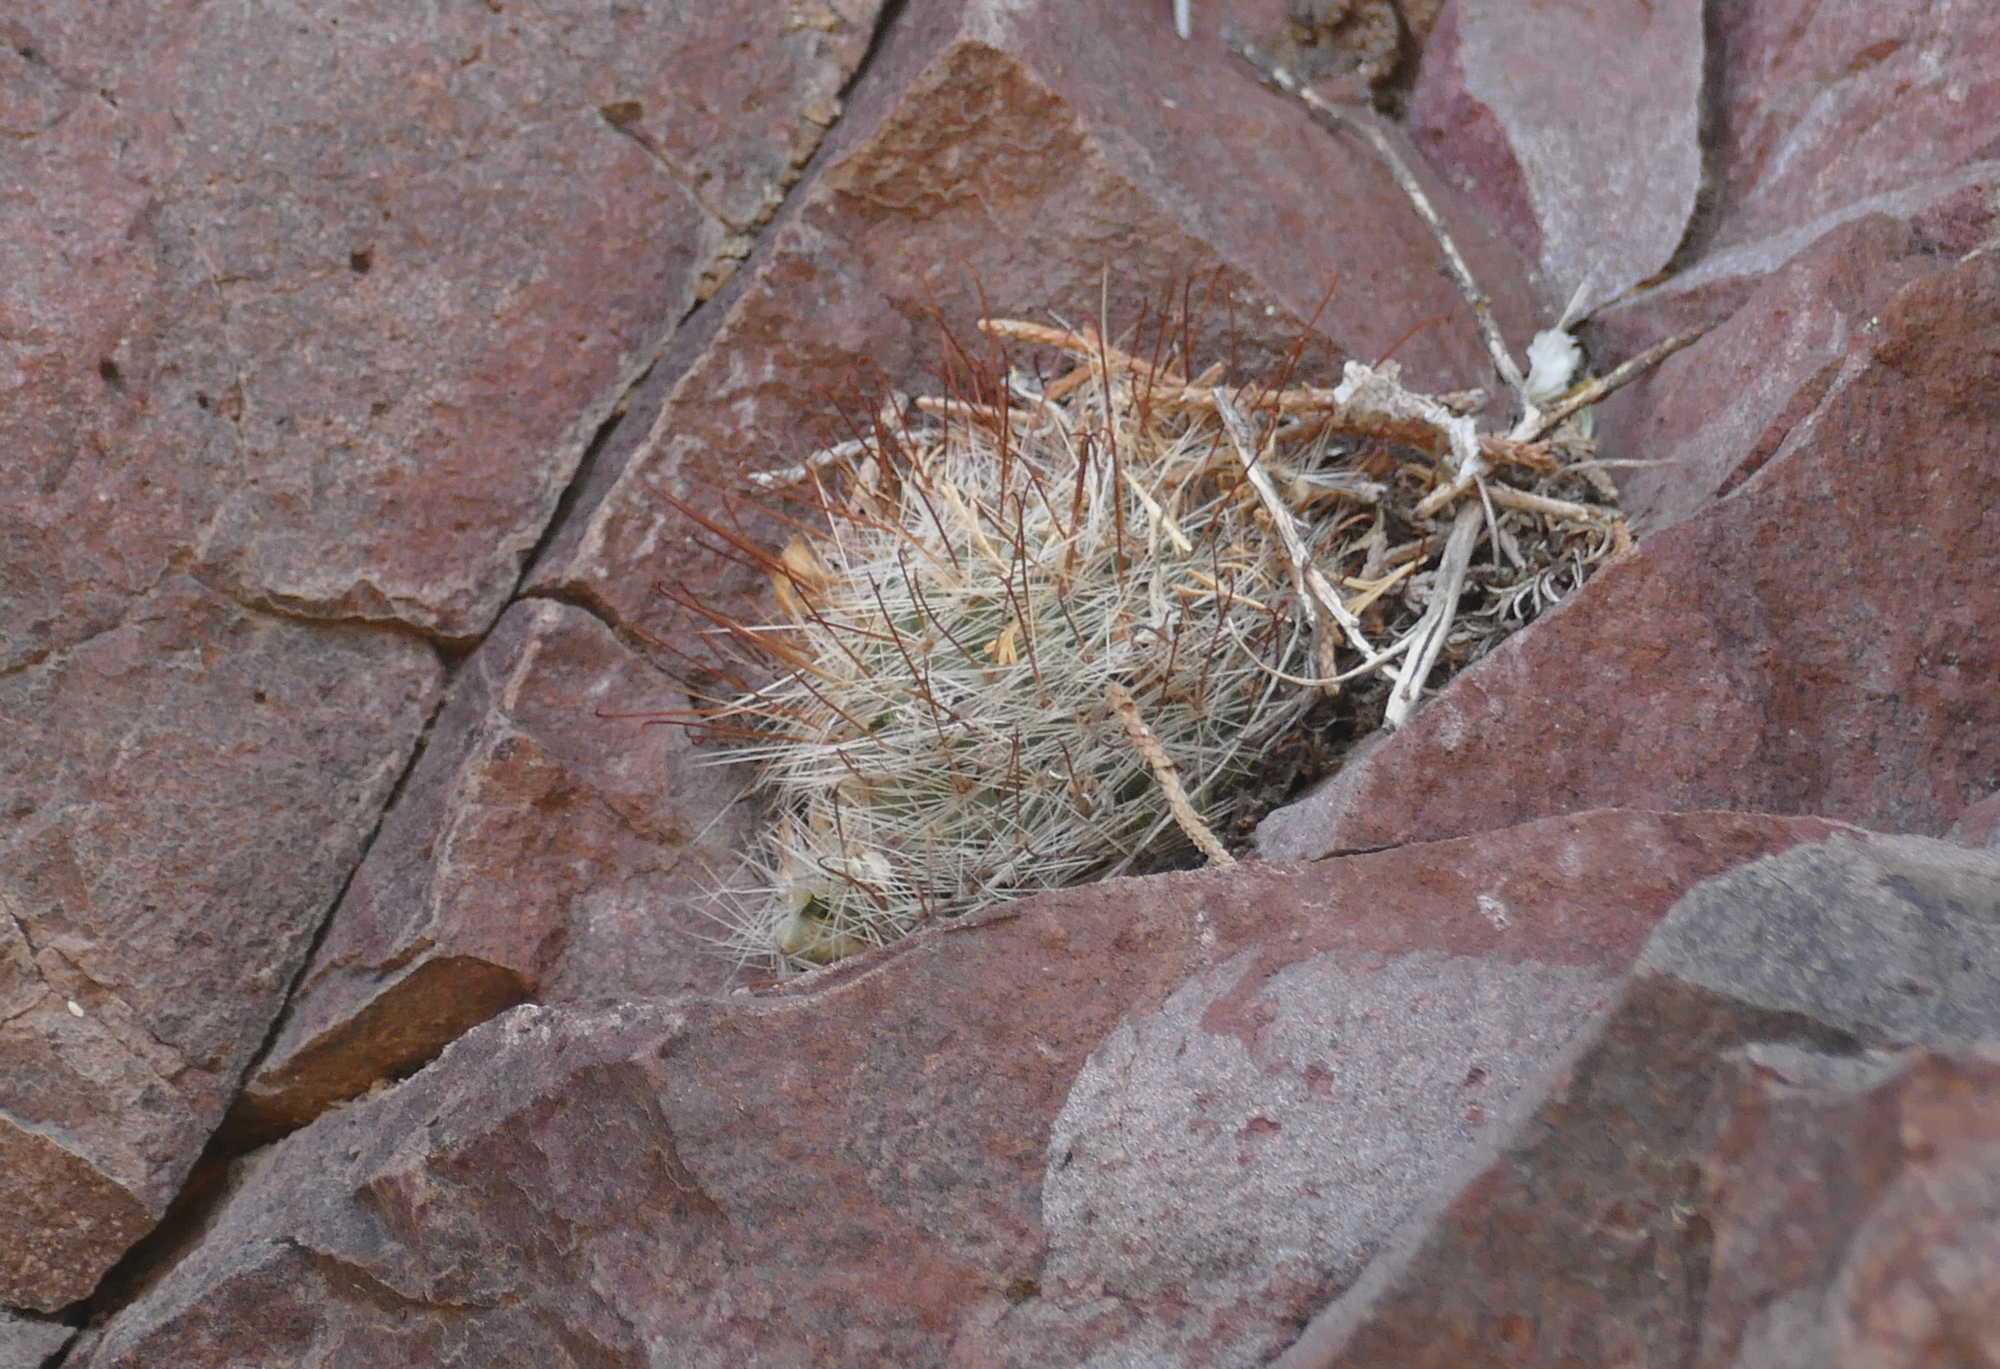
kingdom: Plantae
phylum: Tracheophyta
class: Magnoliopsida
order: Caryophyllales
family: Cactaceae
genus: Cochemiea
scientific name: Cochemiea barbata
